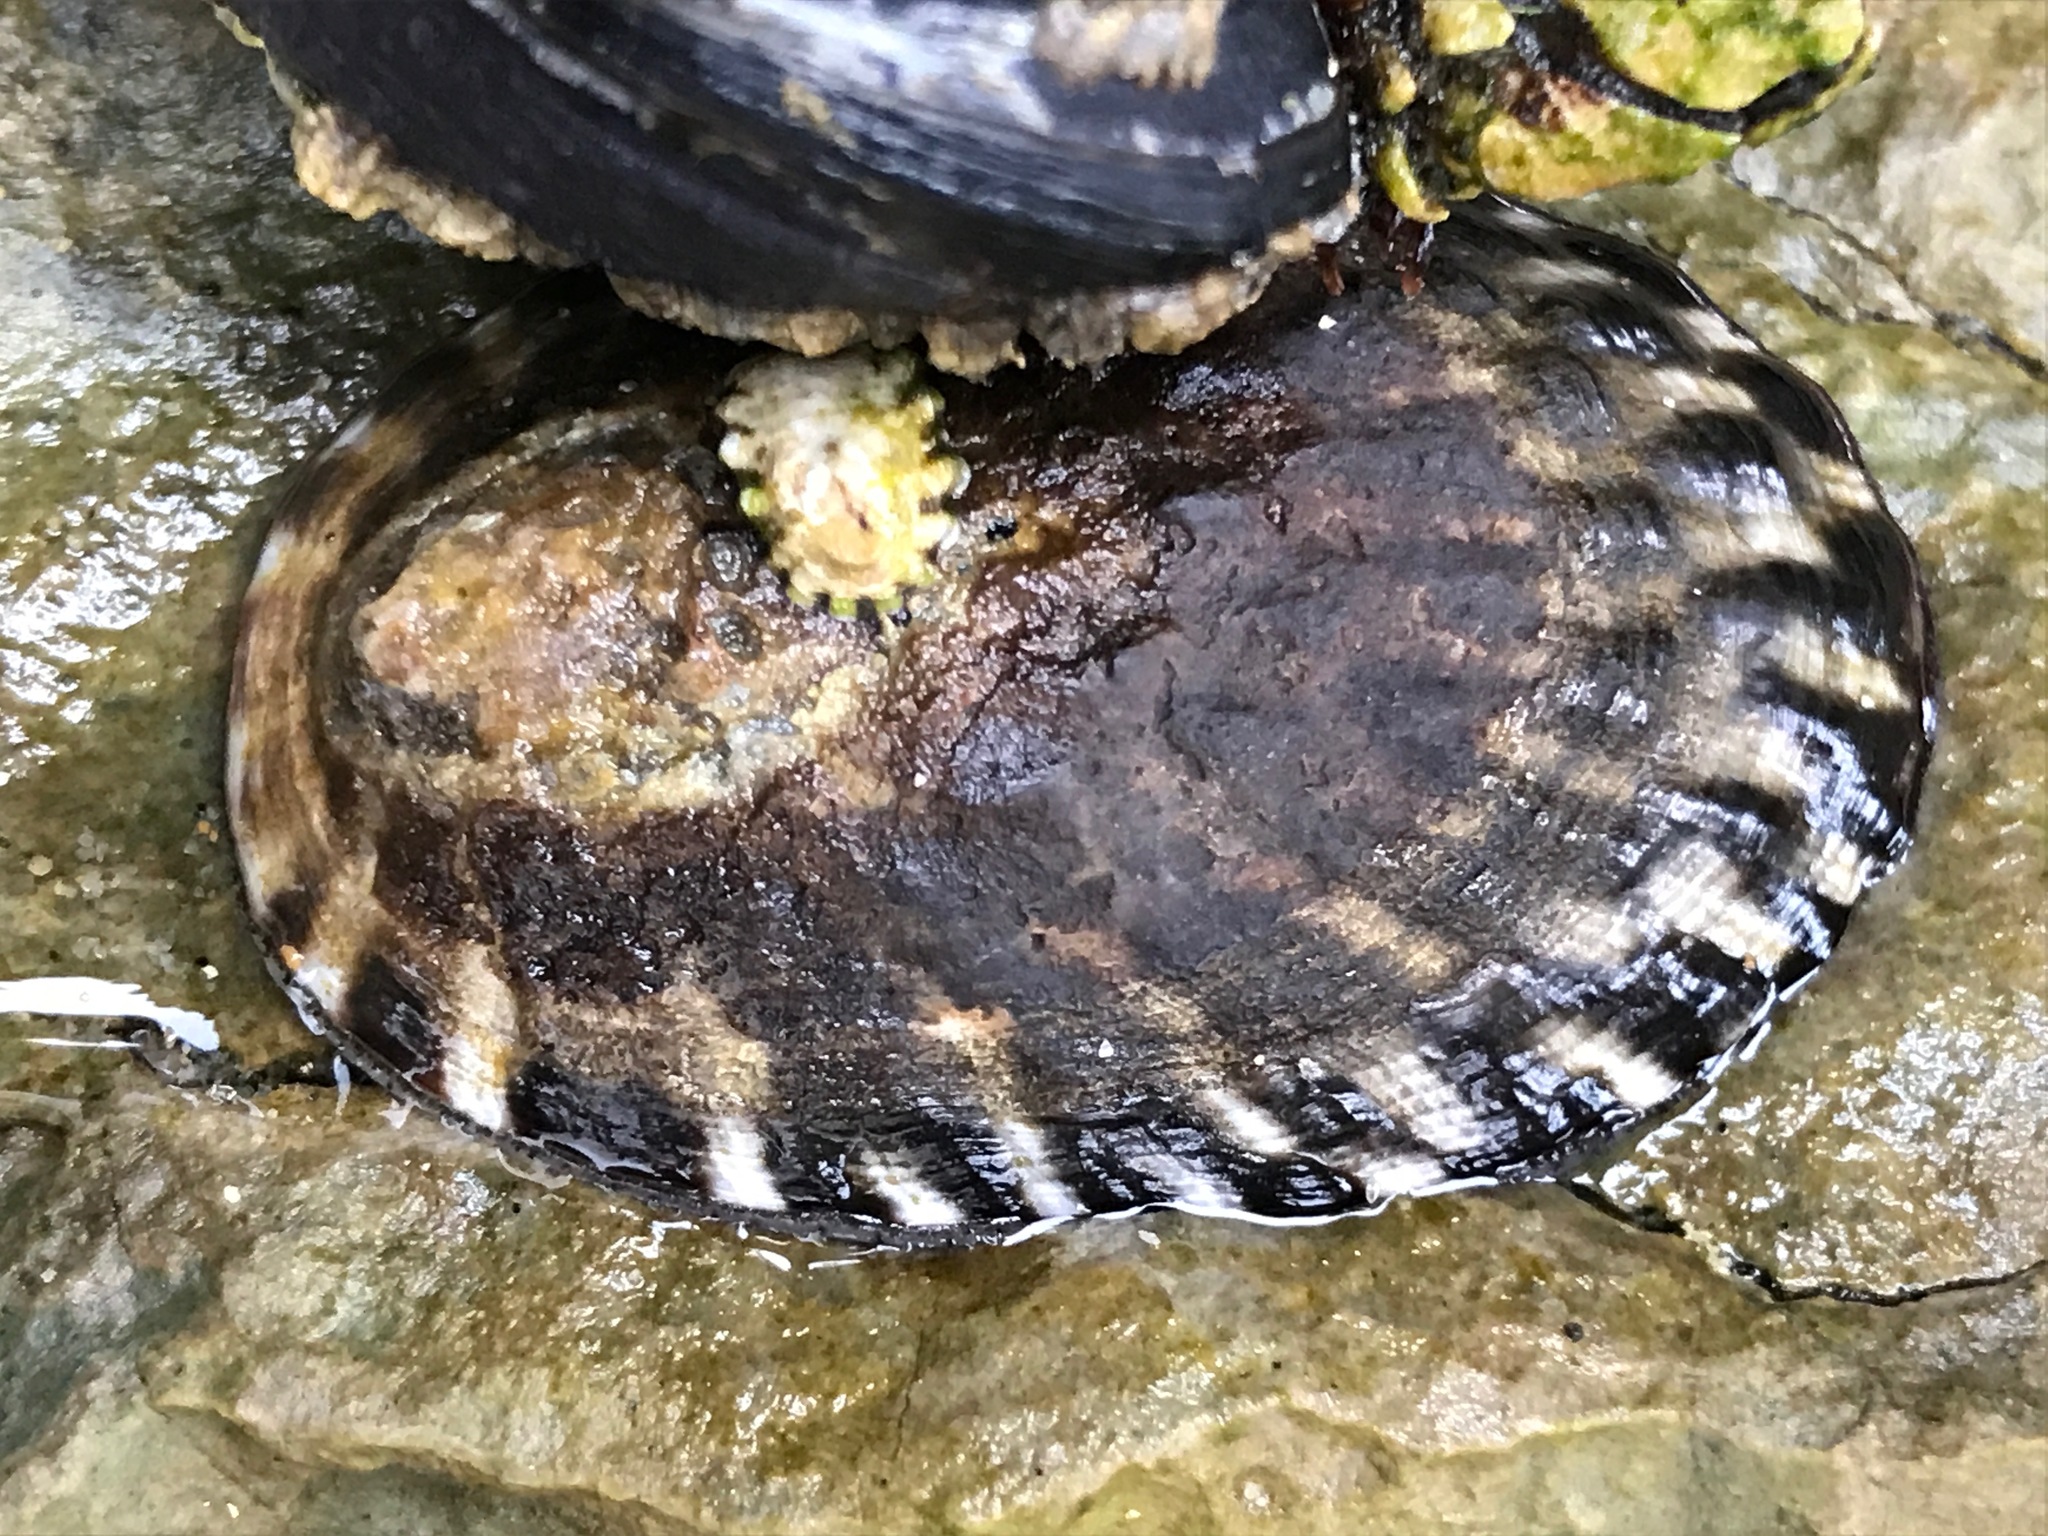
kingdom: Animalia
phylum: Mollusca
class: Gastropoda
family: Lottiidae
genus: Lottia
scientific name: Lottia gigantea
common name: Owl limpet
